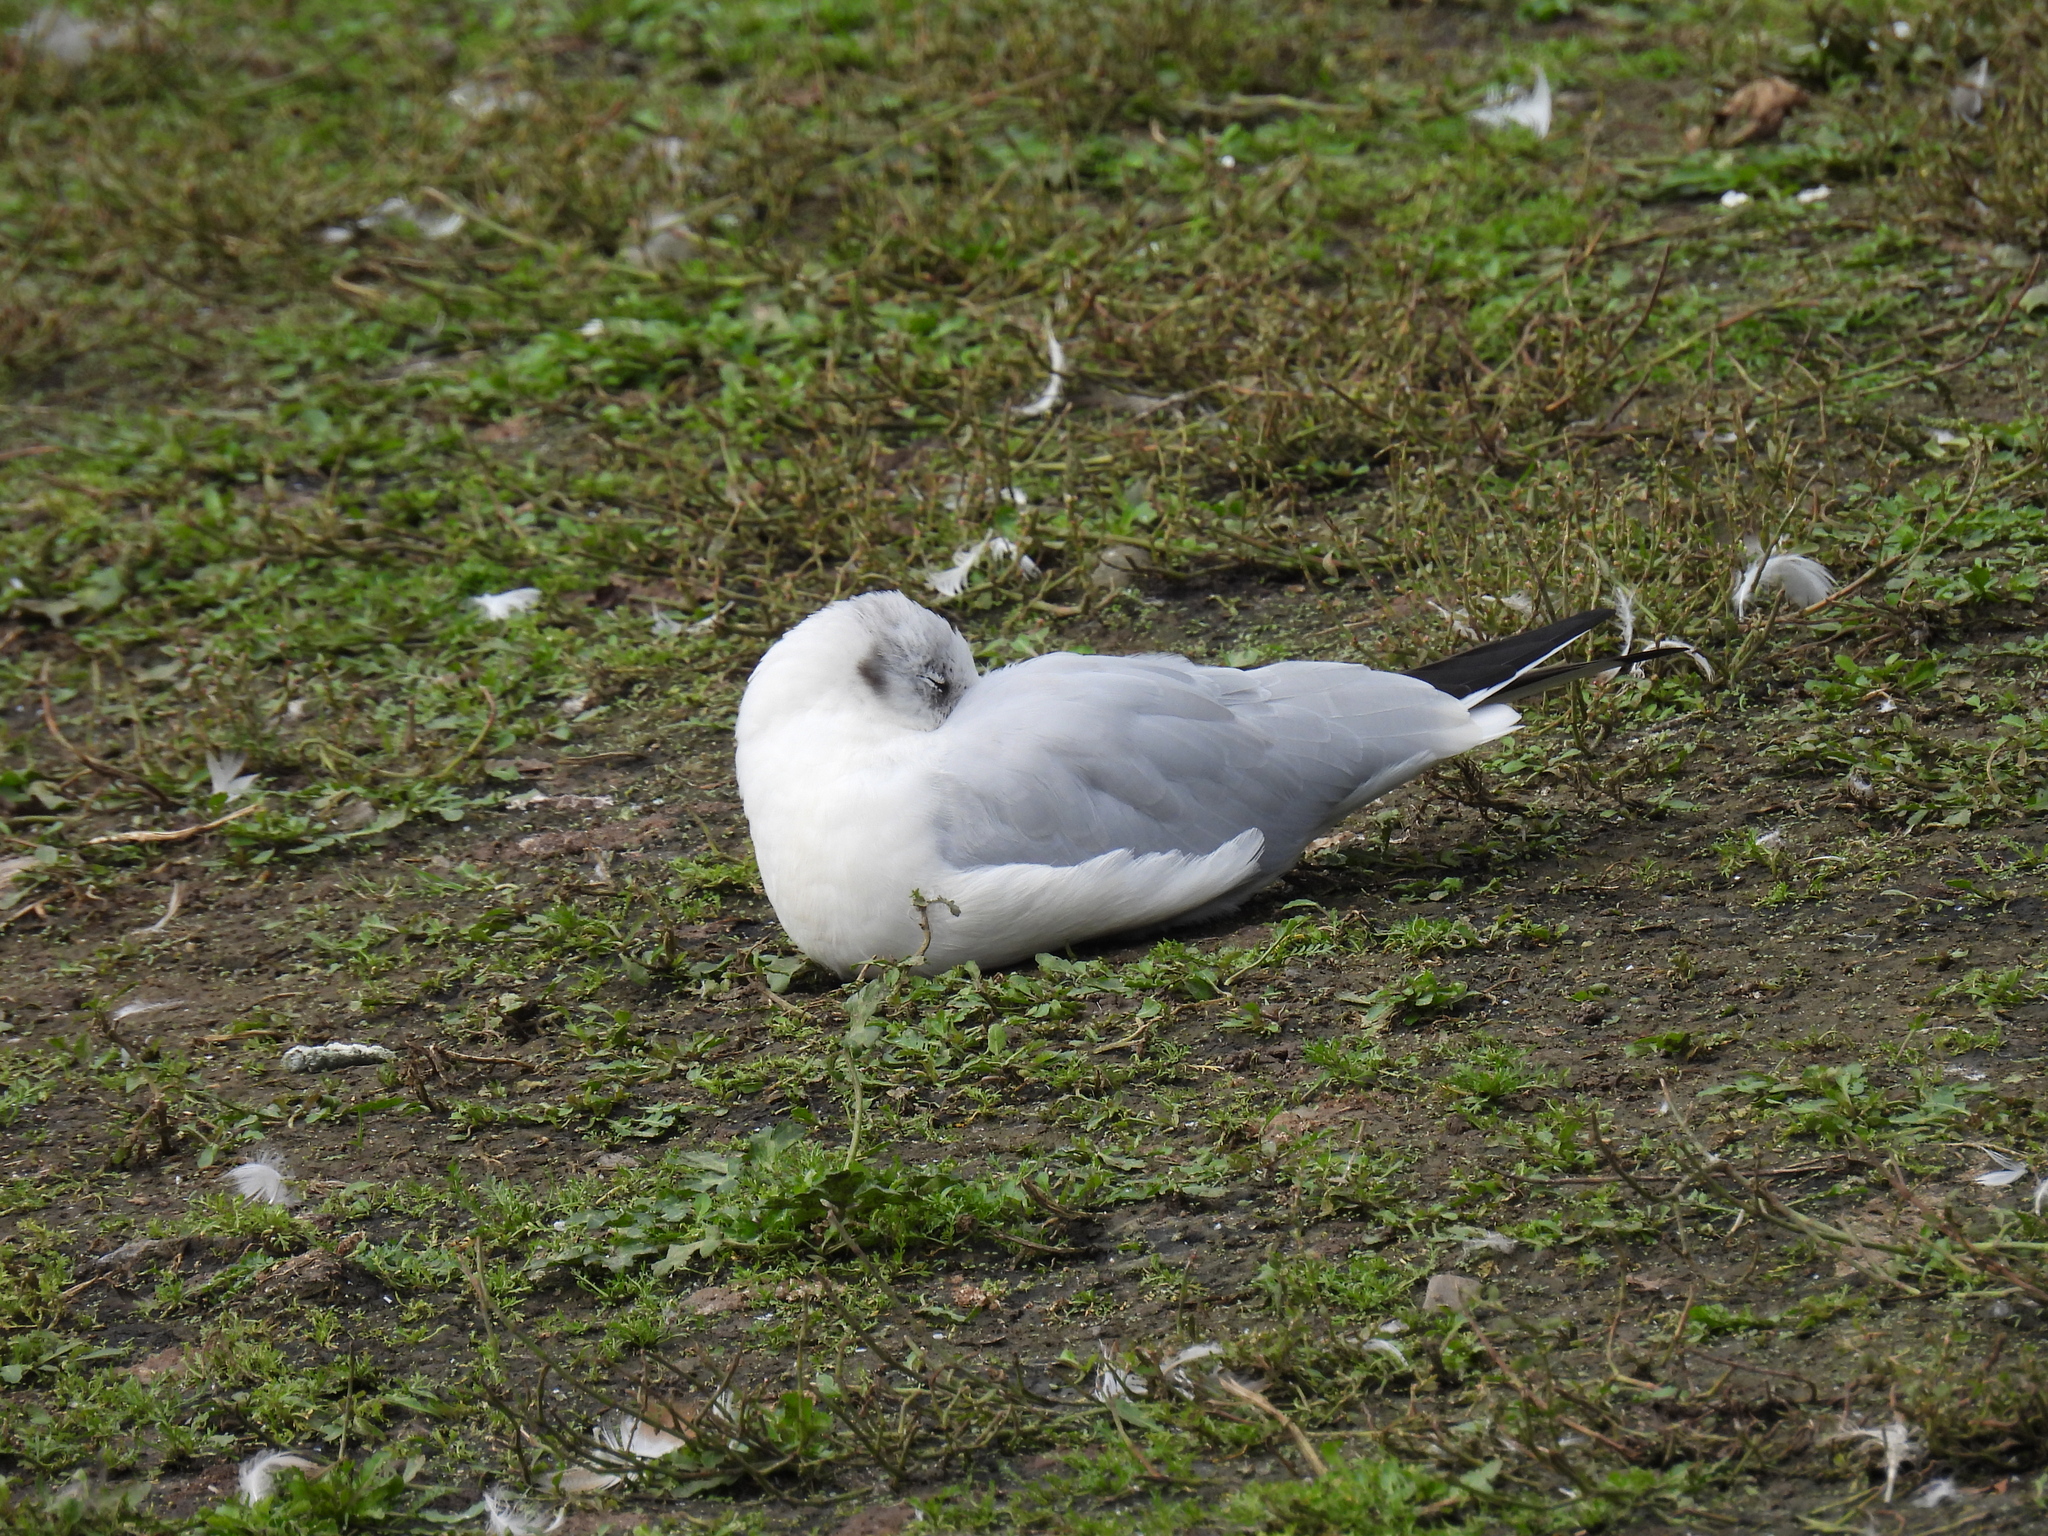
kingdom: Animalia
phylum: Chordata
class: Aves
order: Charadriiformes
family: Laridae
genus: Chroicocephalus
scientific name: Chroicocephalus ridibundus
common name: Black-headed gull
